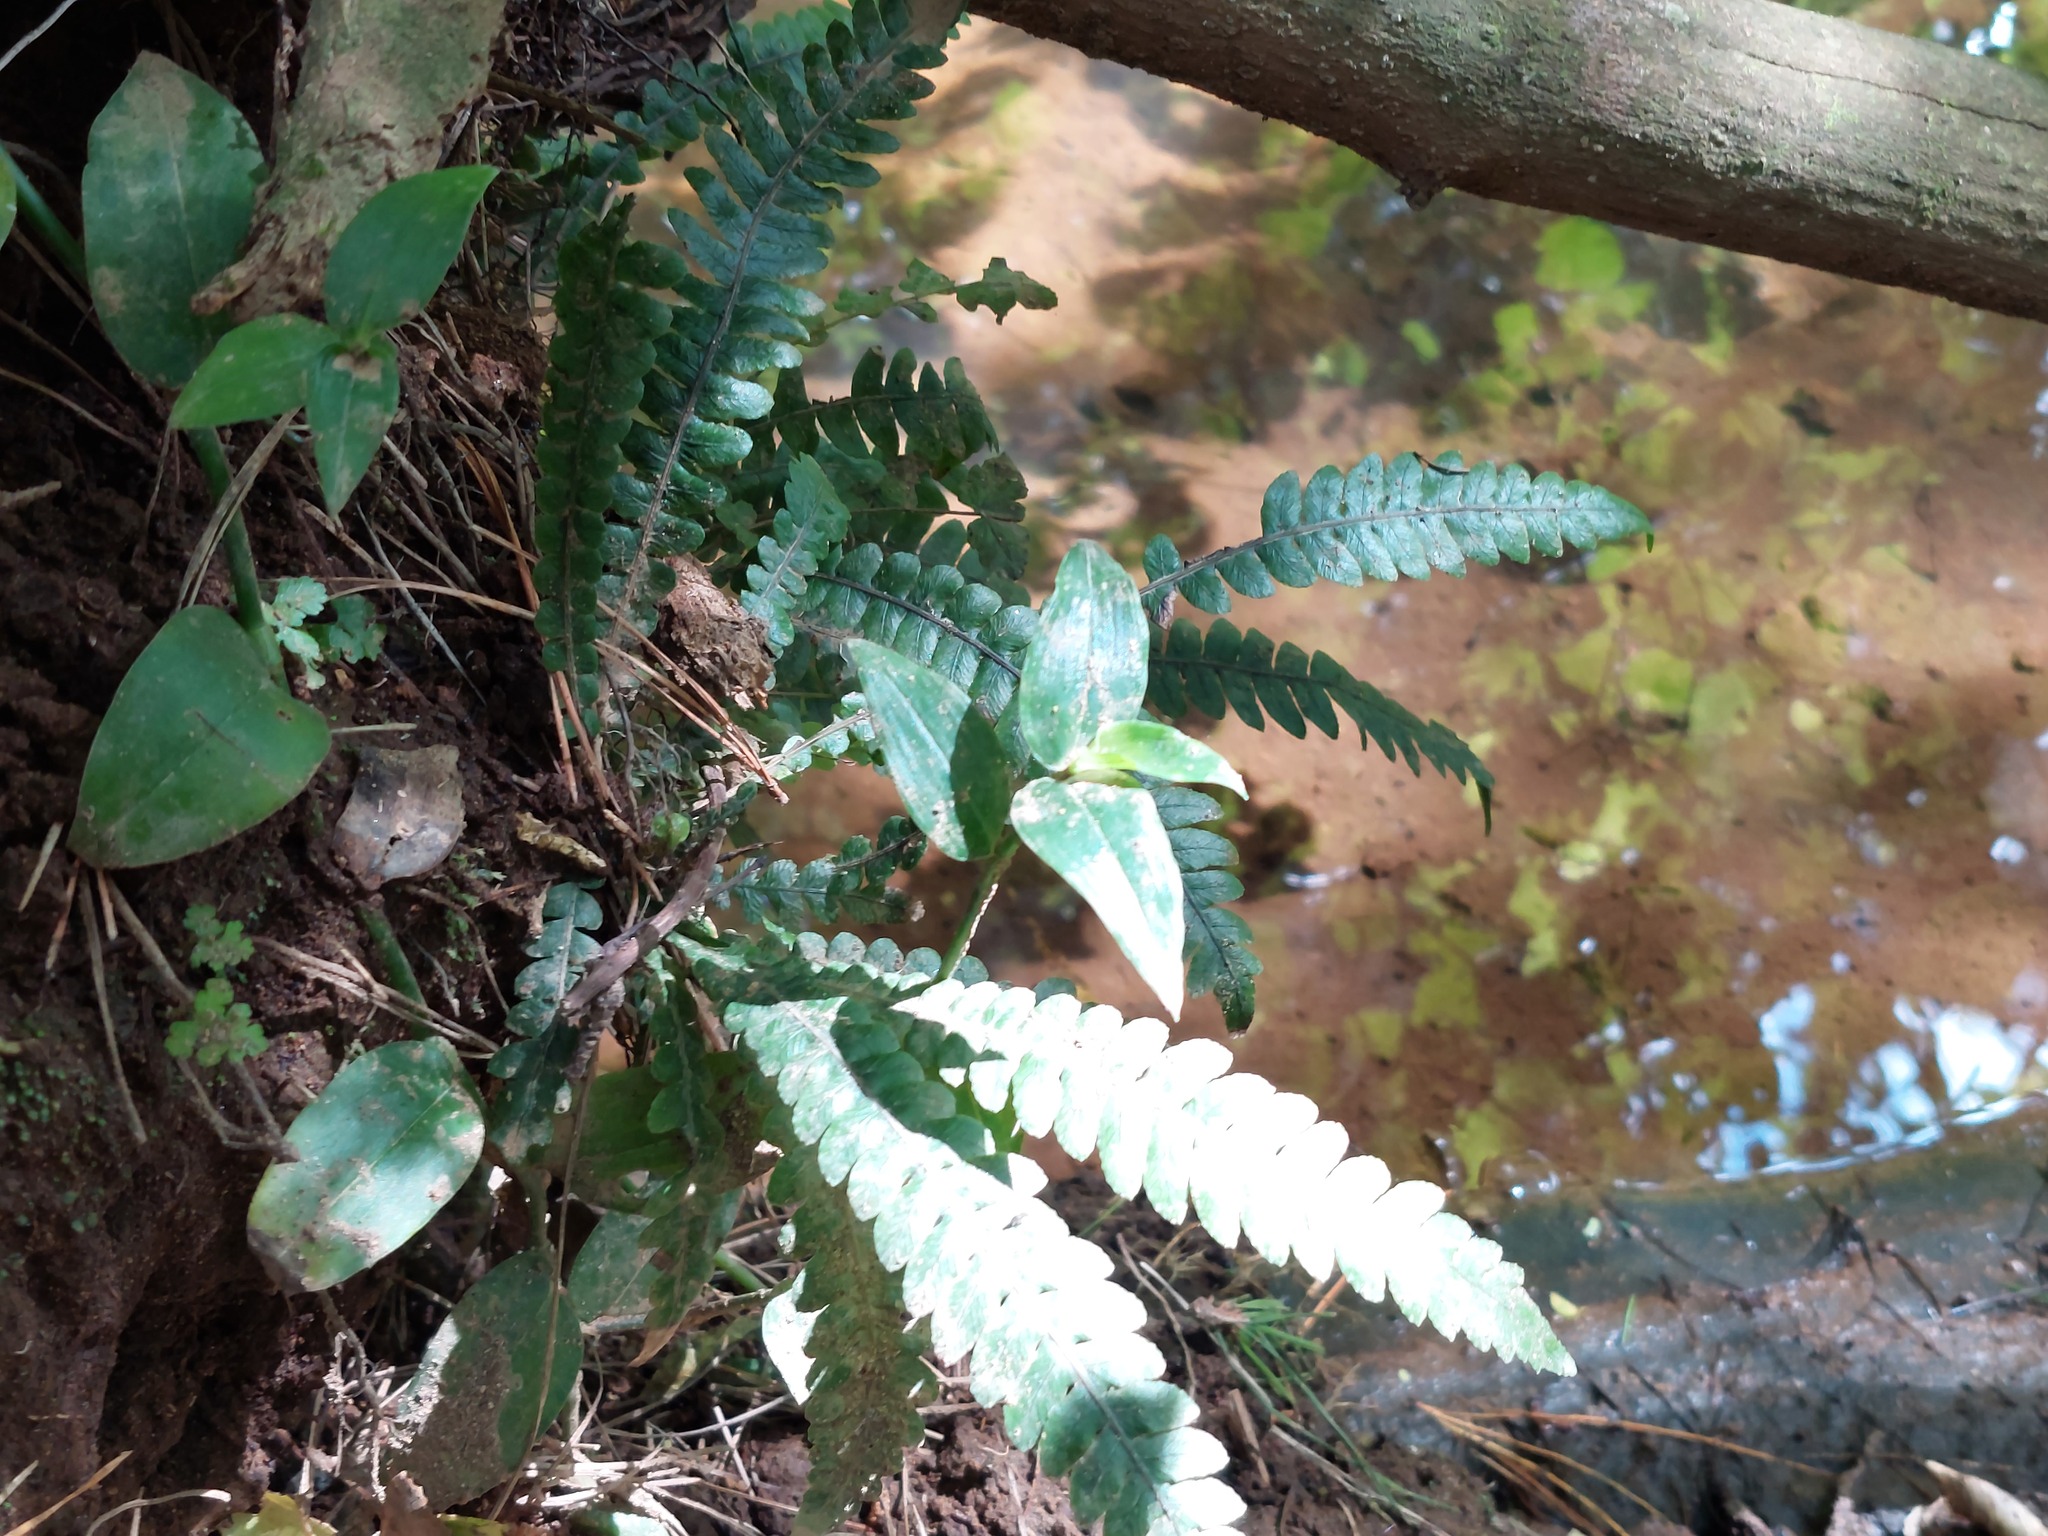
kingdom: Plantae
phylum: Tracheophyta
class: Polypodiopsida
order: Polypodiales
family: Blechnaceae
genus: Austroblechnum
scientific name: Austroblechnum lanceolatum
